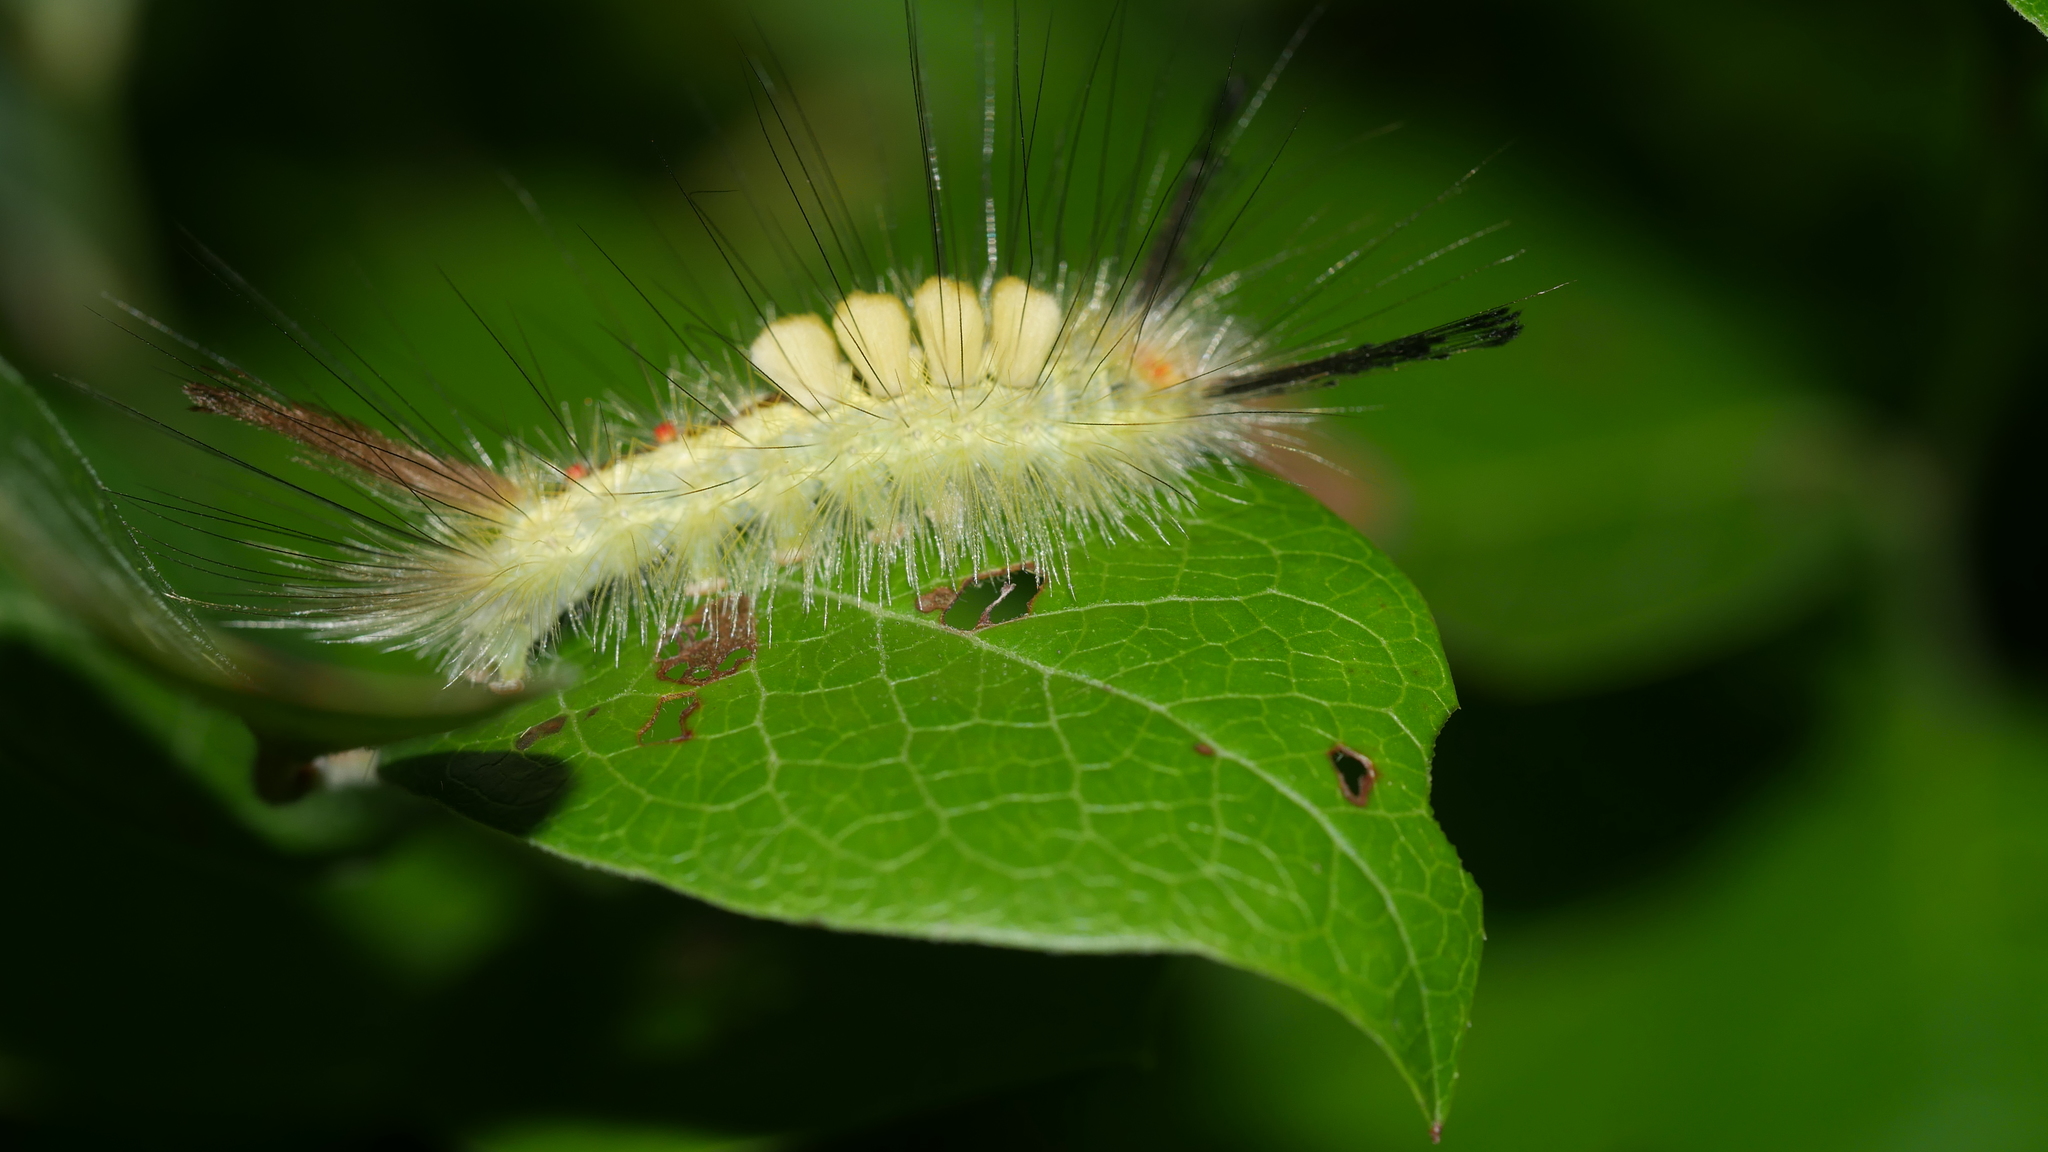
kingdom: Animalia
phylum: Arthropoda
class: Insecta
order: Lepidoptera
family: Erebidae
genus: Orgyia
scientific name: Orgyia leucostigma
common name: White-marked tussock moth
